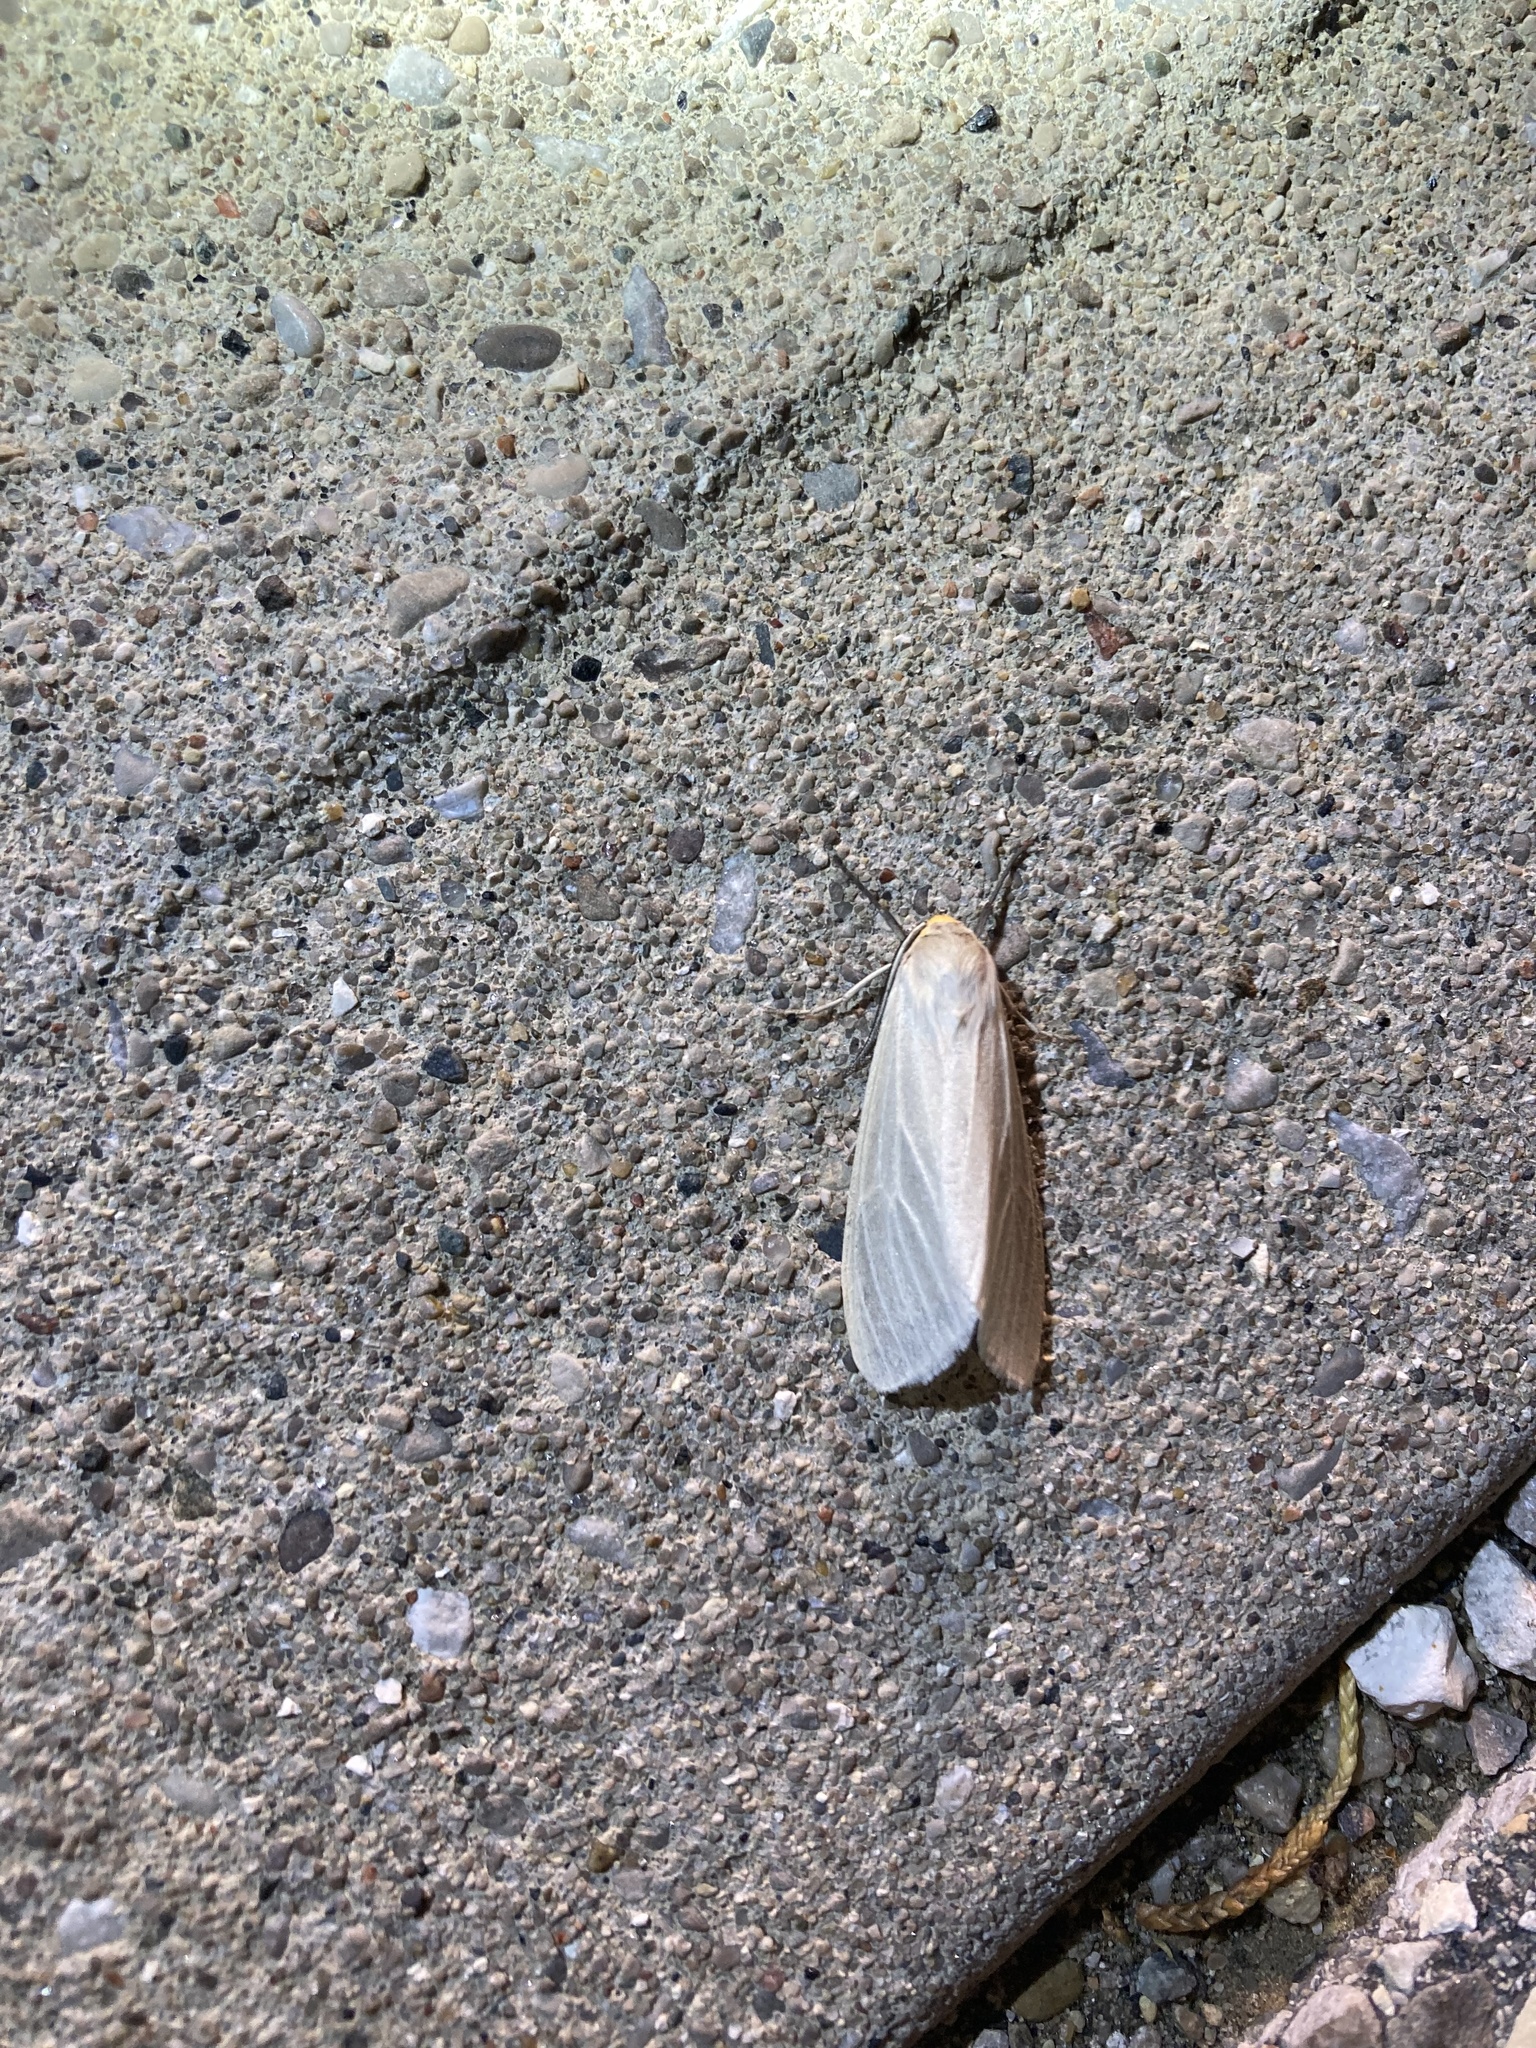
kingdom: Animalia
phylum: Arthropoda
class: Insecta
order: Lepidoptera
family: Erebidae
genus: Cycnia
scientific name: Cycnia oregonensis
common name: Oregon cycnia moth
